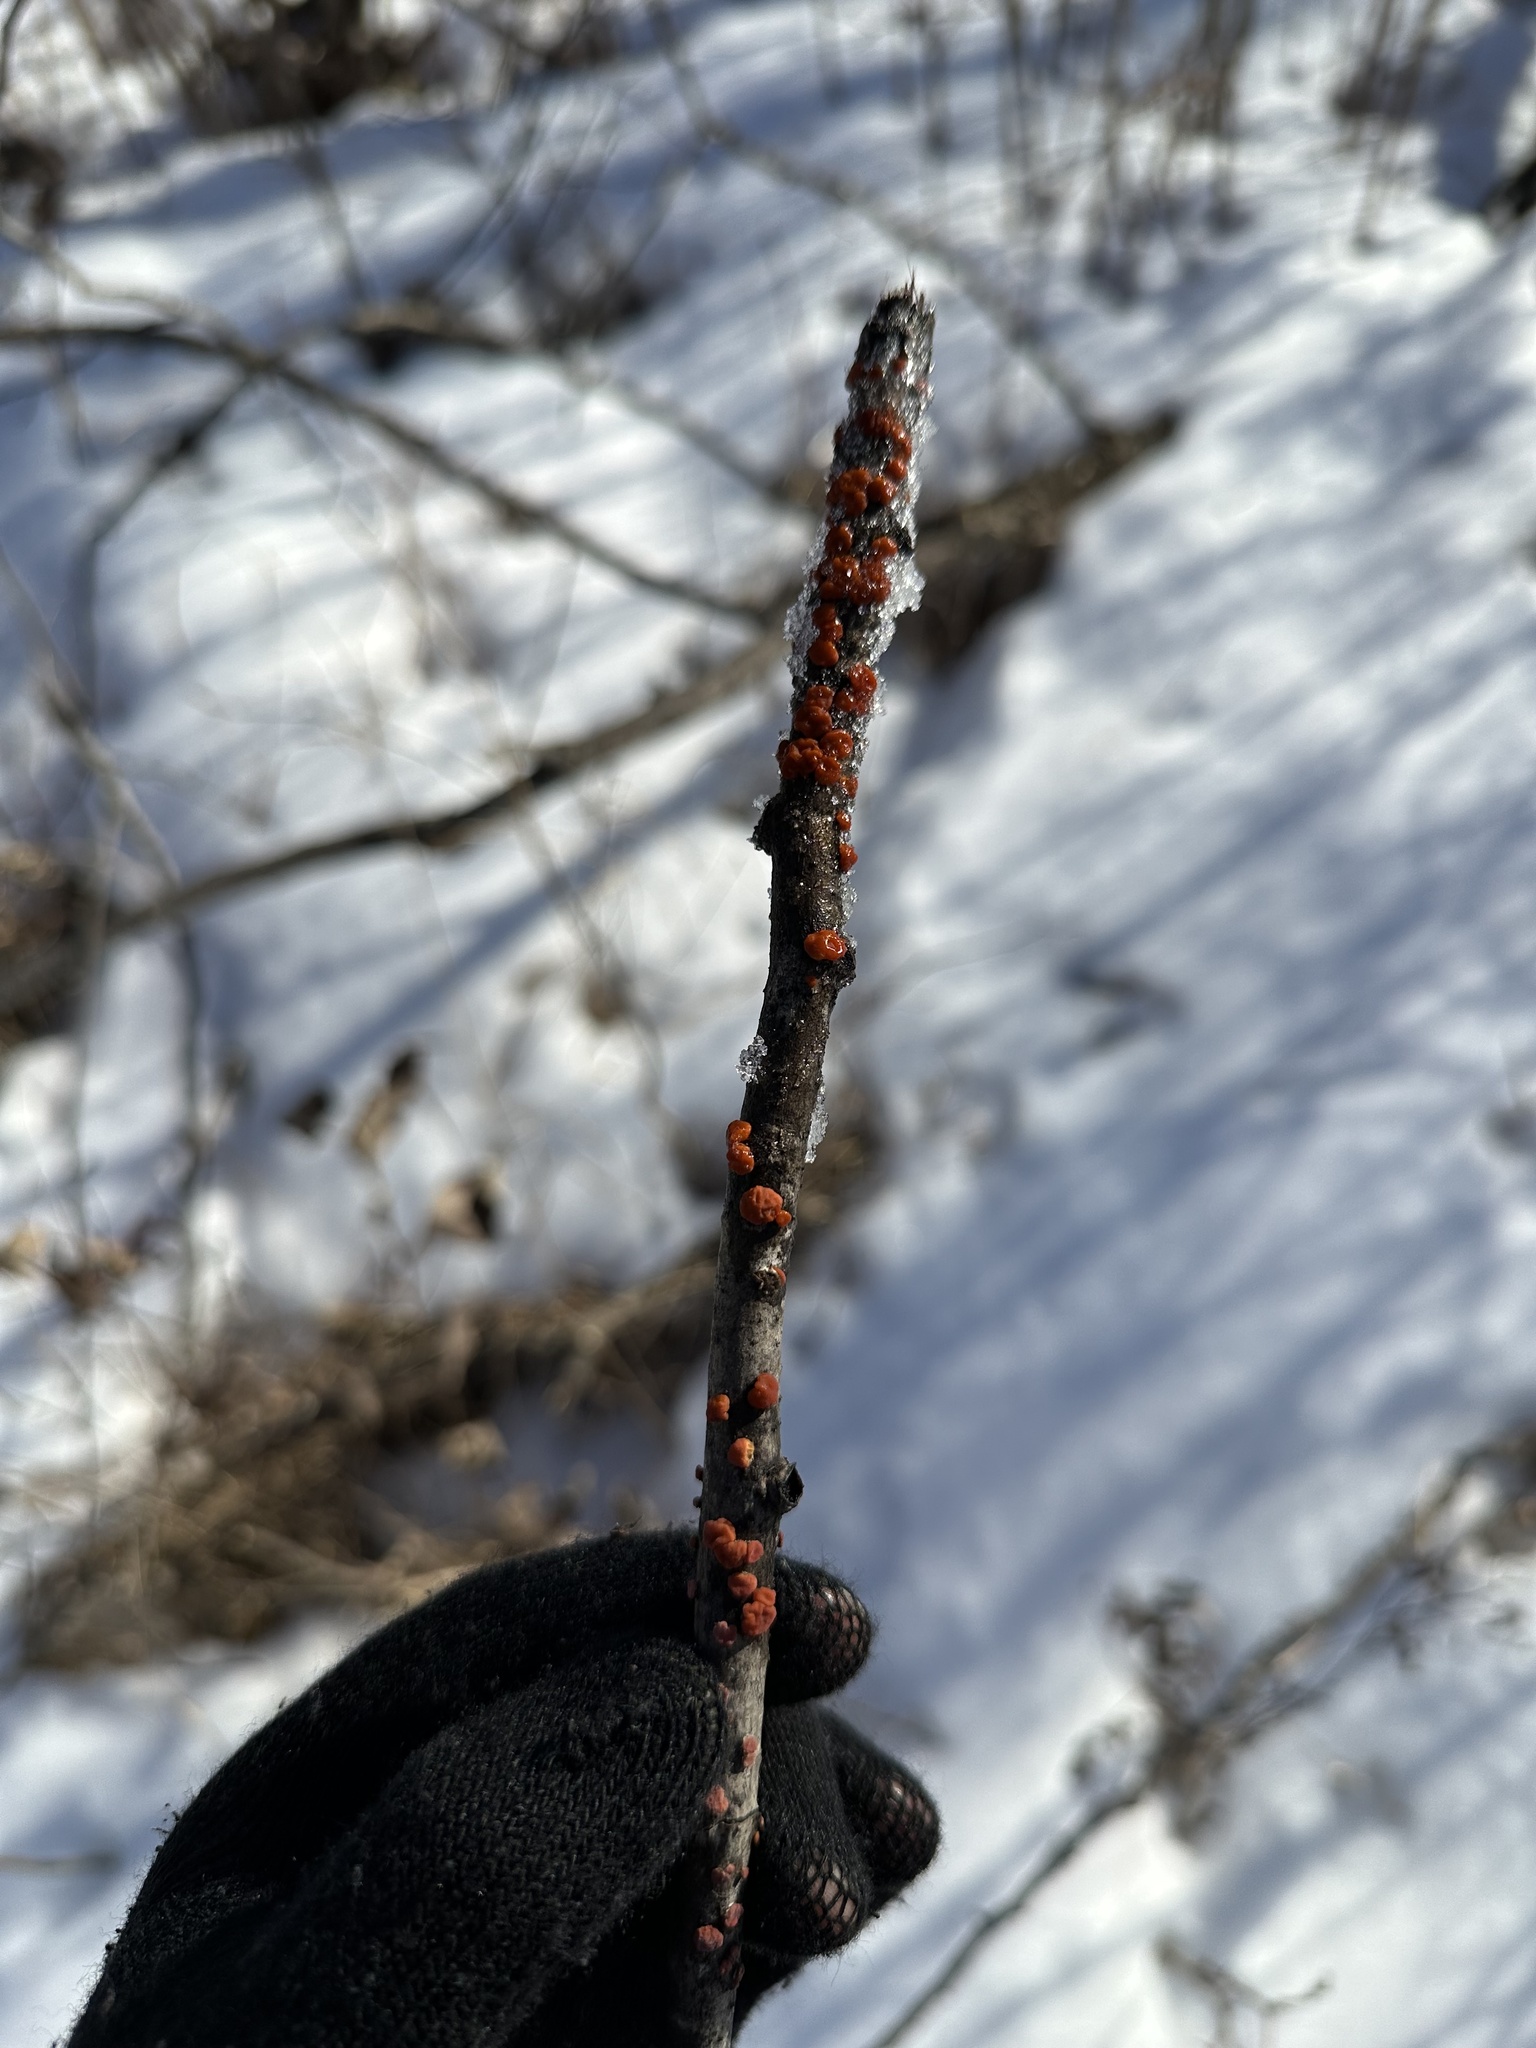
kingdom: Fungi
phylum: Basidiomycota
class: Agaricomycetes
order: Russulales
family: Peniophoraceae
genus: Peniophora
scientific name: Peniophora rufa
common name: Red tree brain fungus
